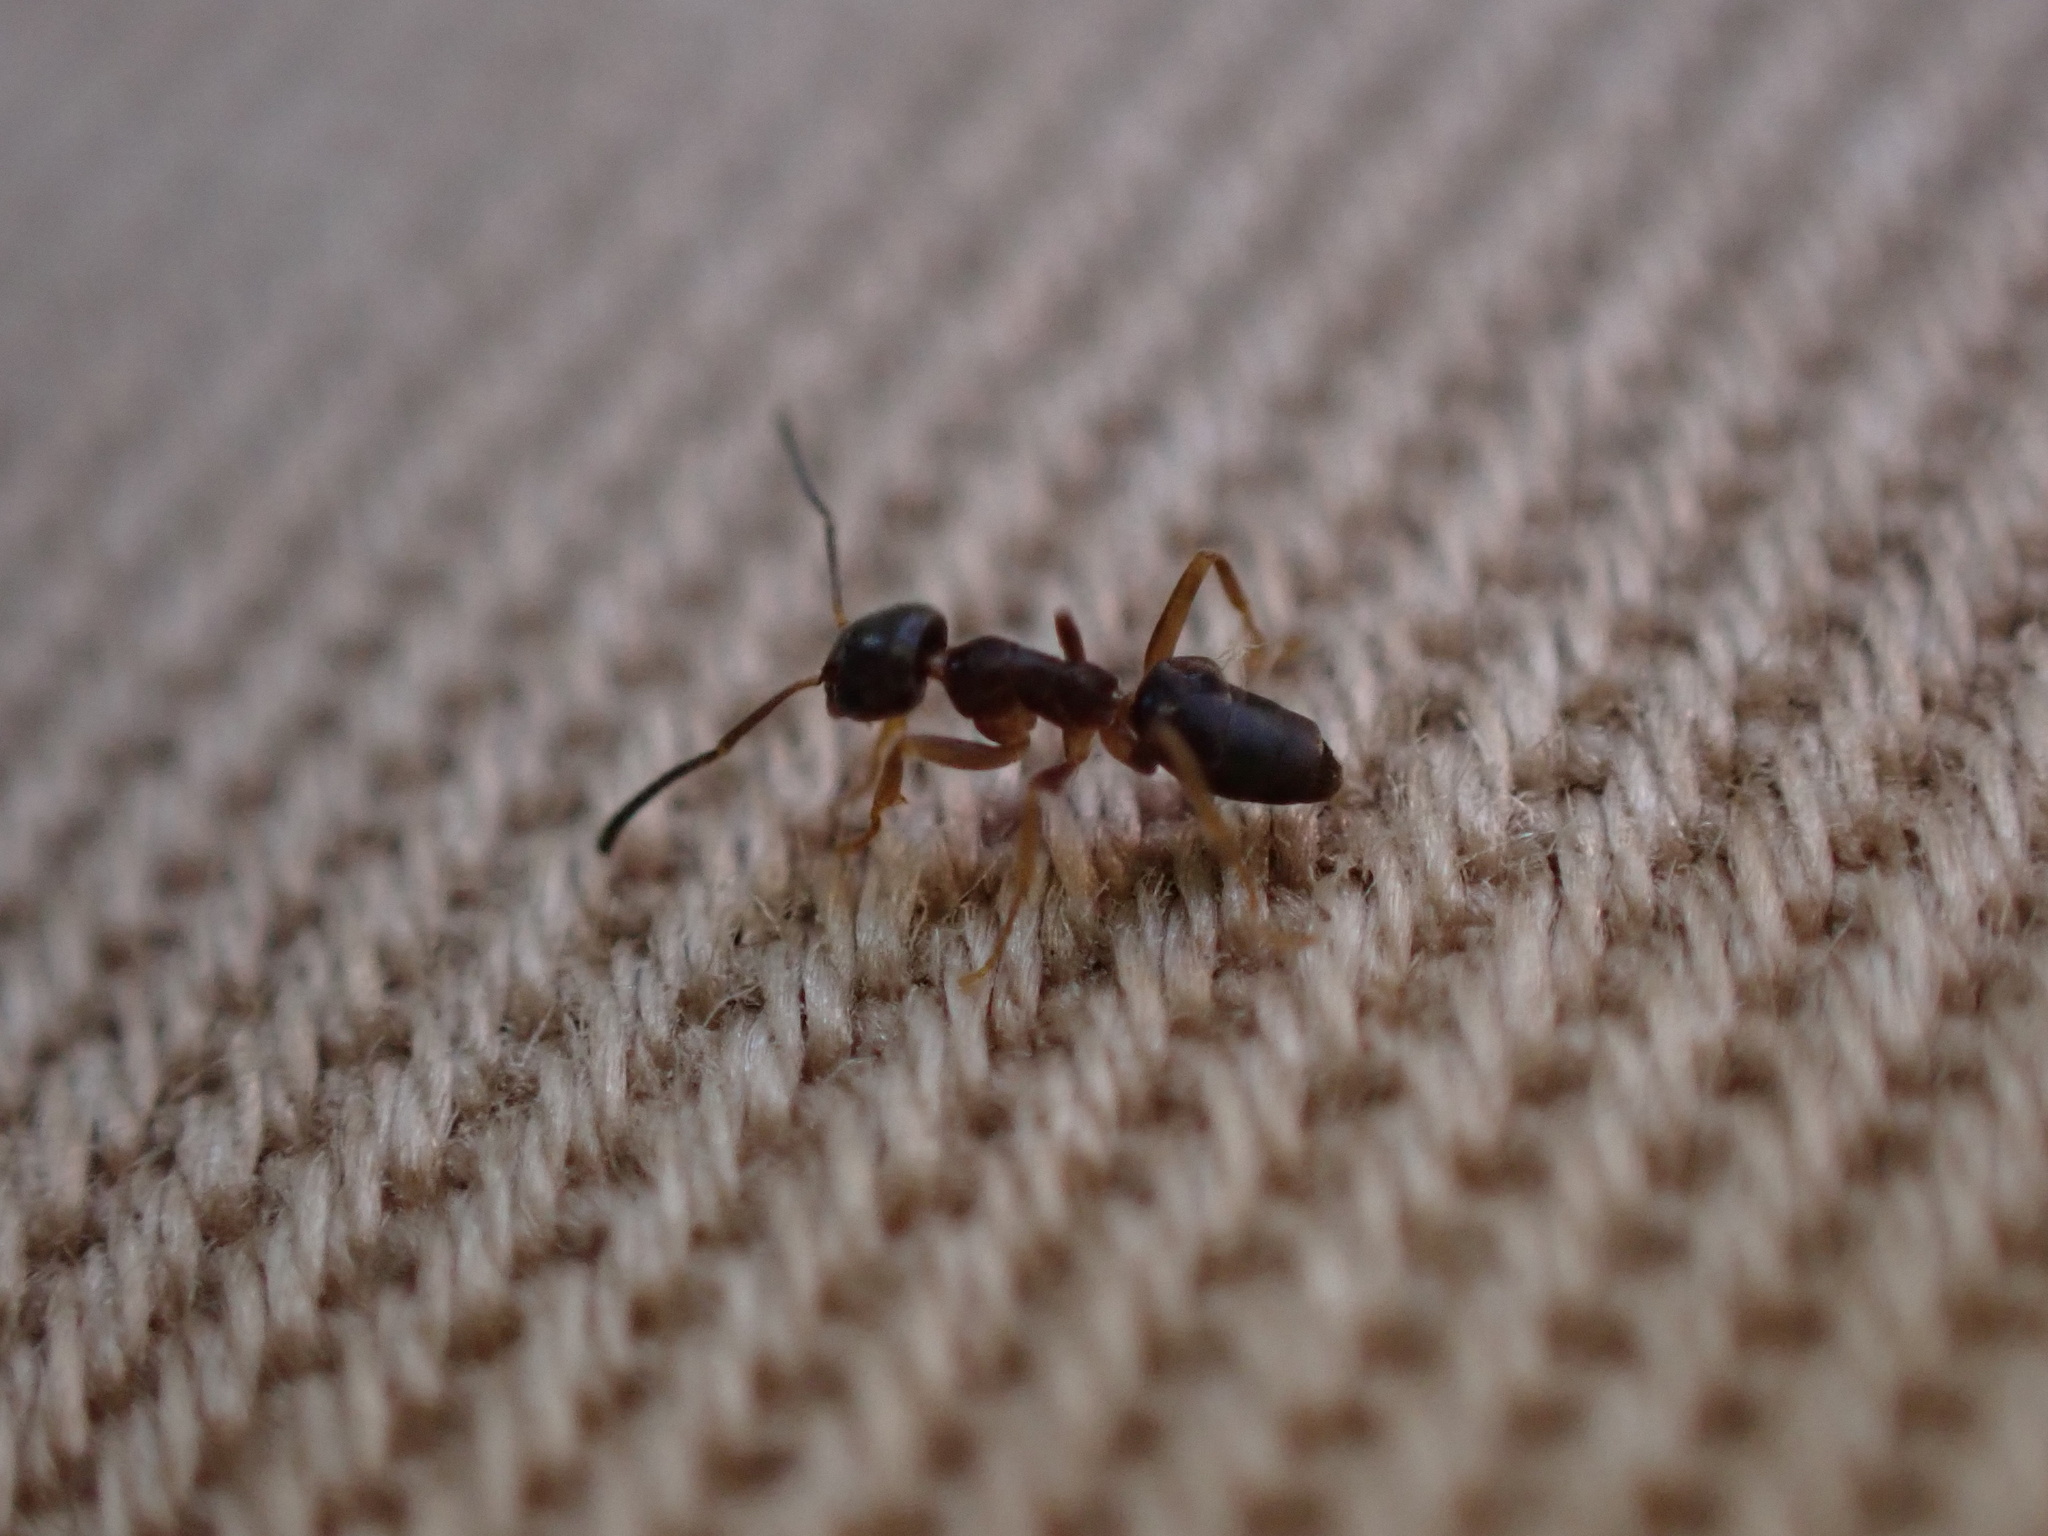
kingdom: Animalia
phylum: Arthropoda
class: Insecta
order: Hymenoptera
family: Formicidae
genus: Tapinoma
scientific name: Tapinoma sessile
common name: Odorous house ant
